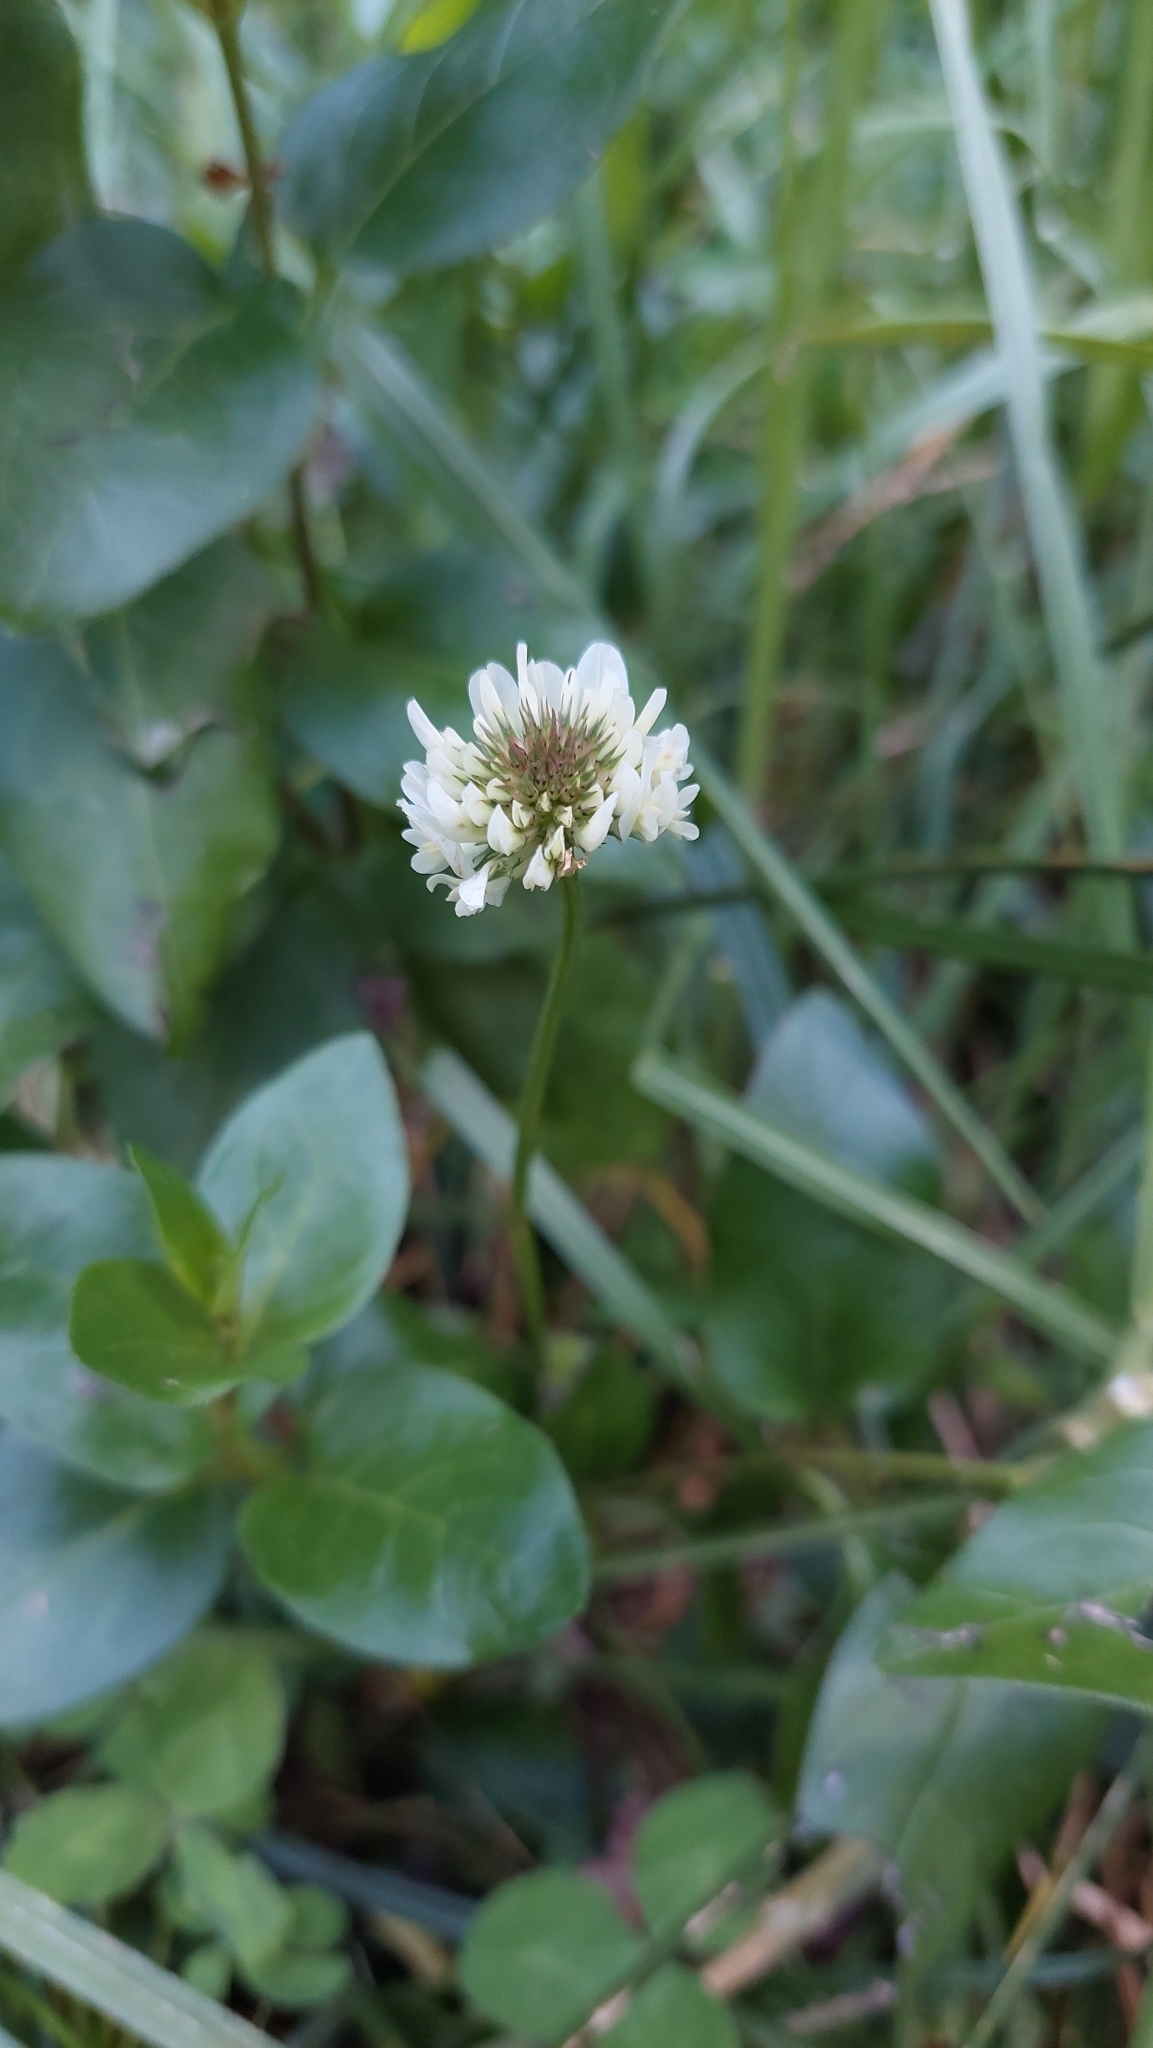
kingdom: Plantae
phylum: Tracheophyta
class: Magnoliopsida
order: Fabales
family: Fabaceae
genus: Trifolium
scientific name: Trifolium repens
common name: White clover
